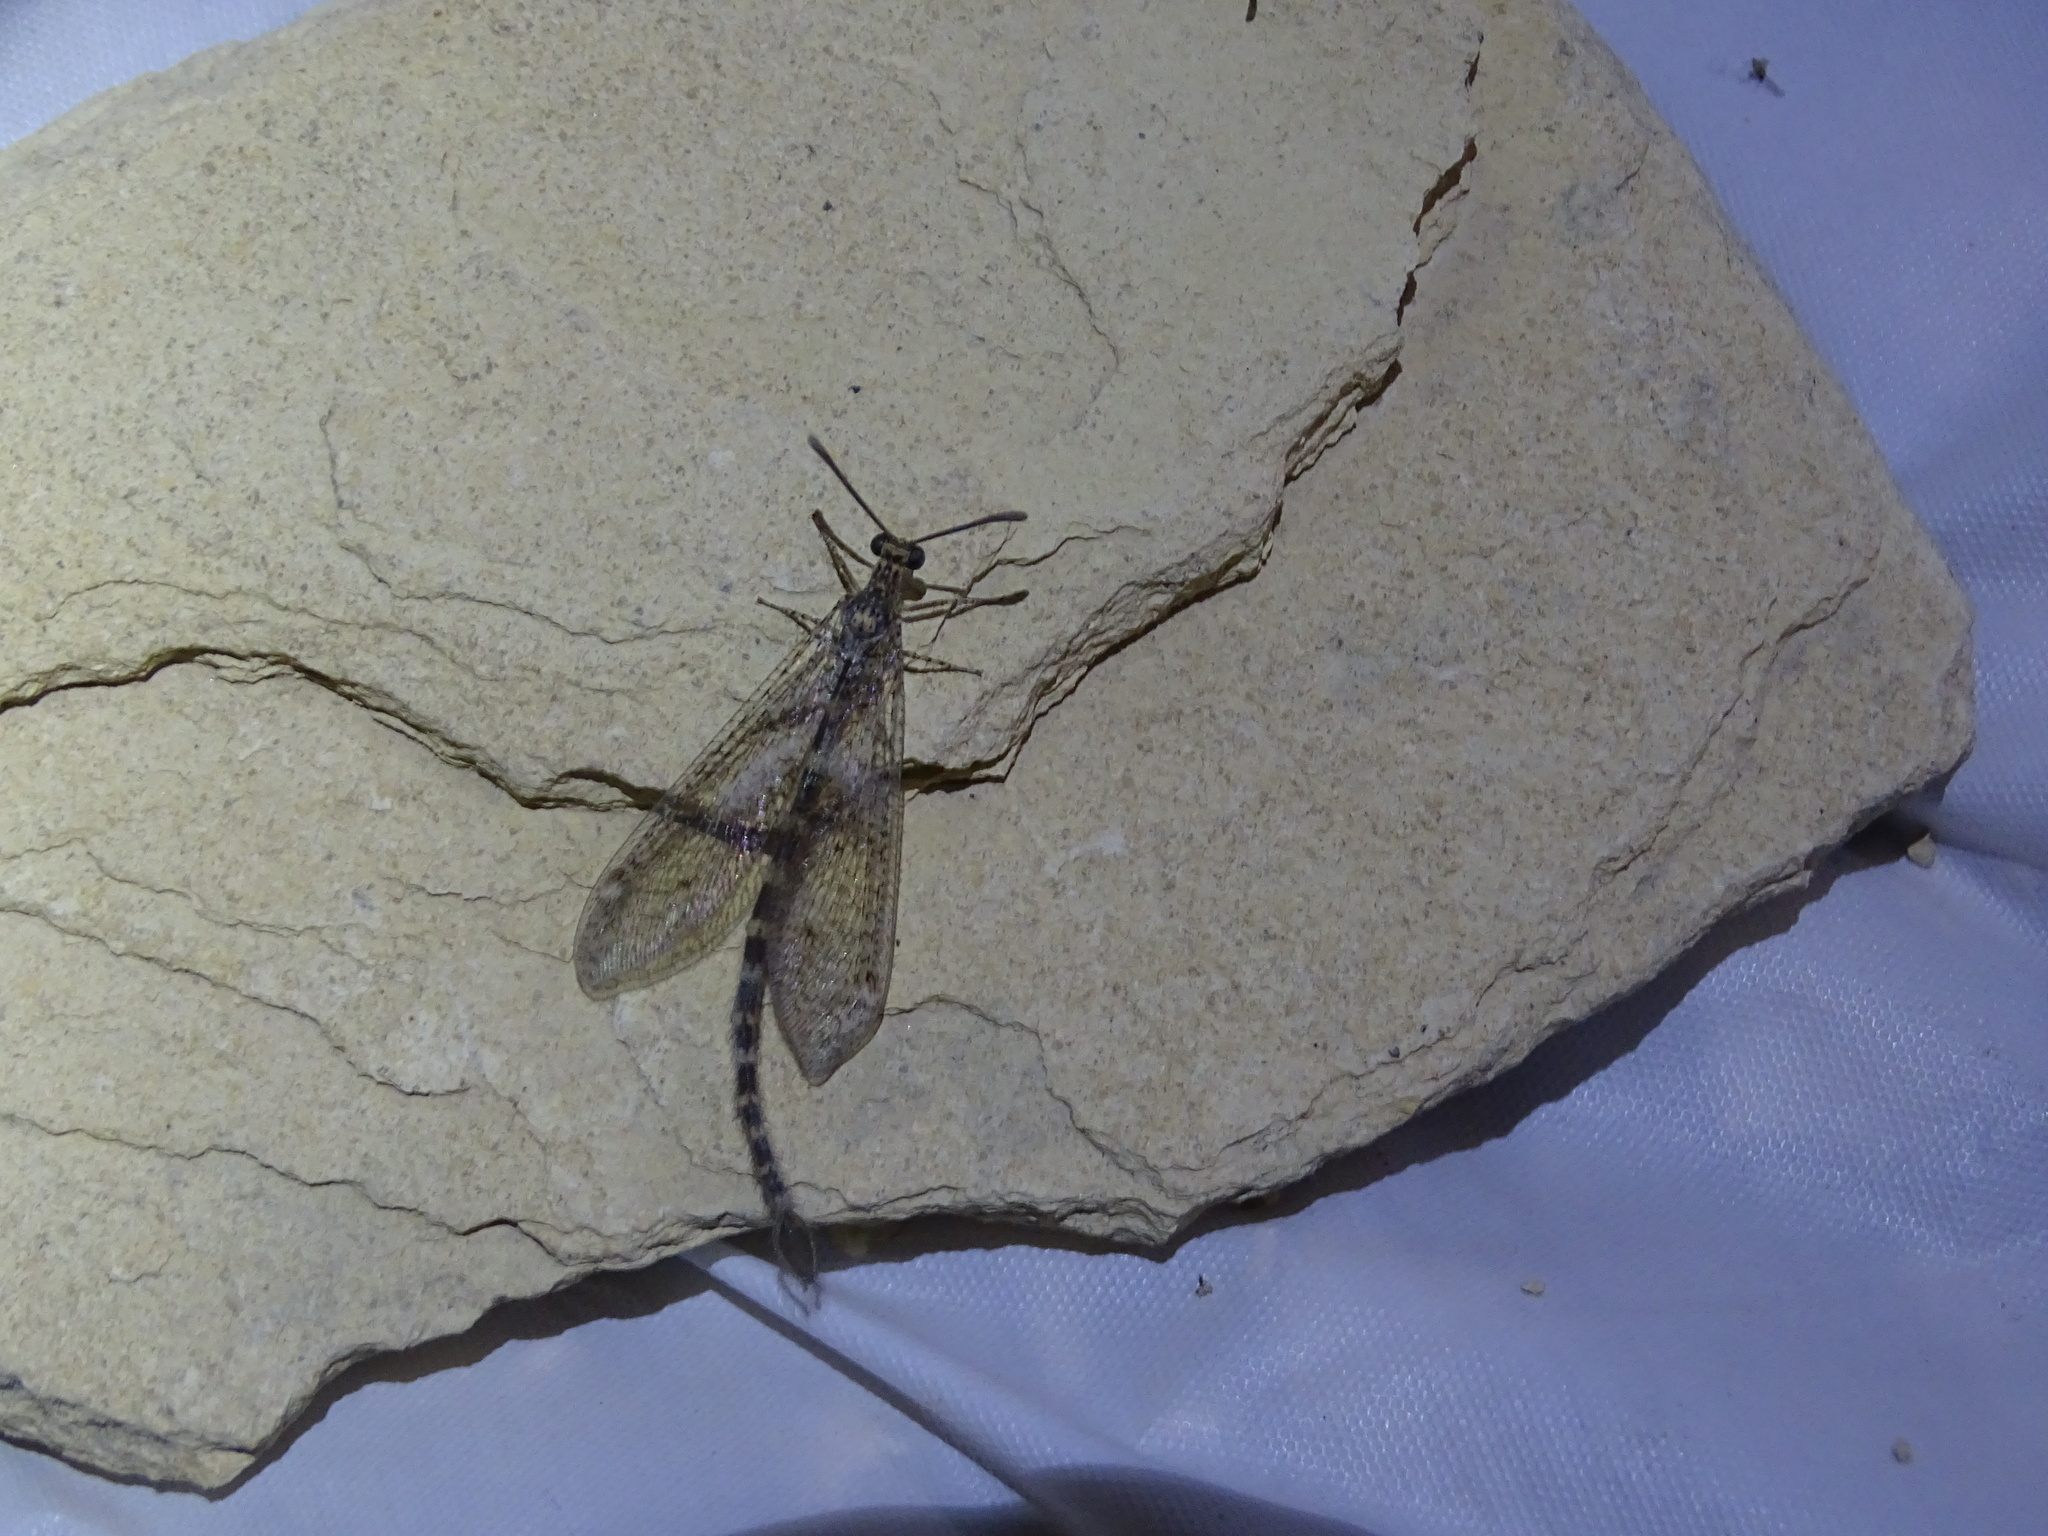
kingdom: Animalia
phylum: Arthropoda
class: Insecta
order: Neuroptera
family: Myrmeleontidae
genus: Brachynemurus
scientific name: Brachynemurus sackeni
